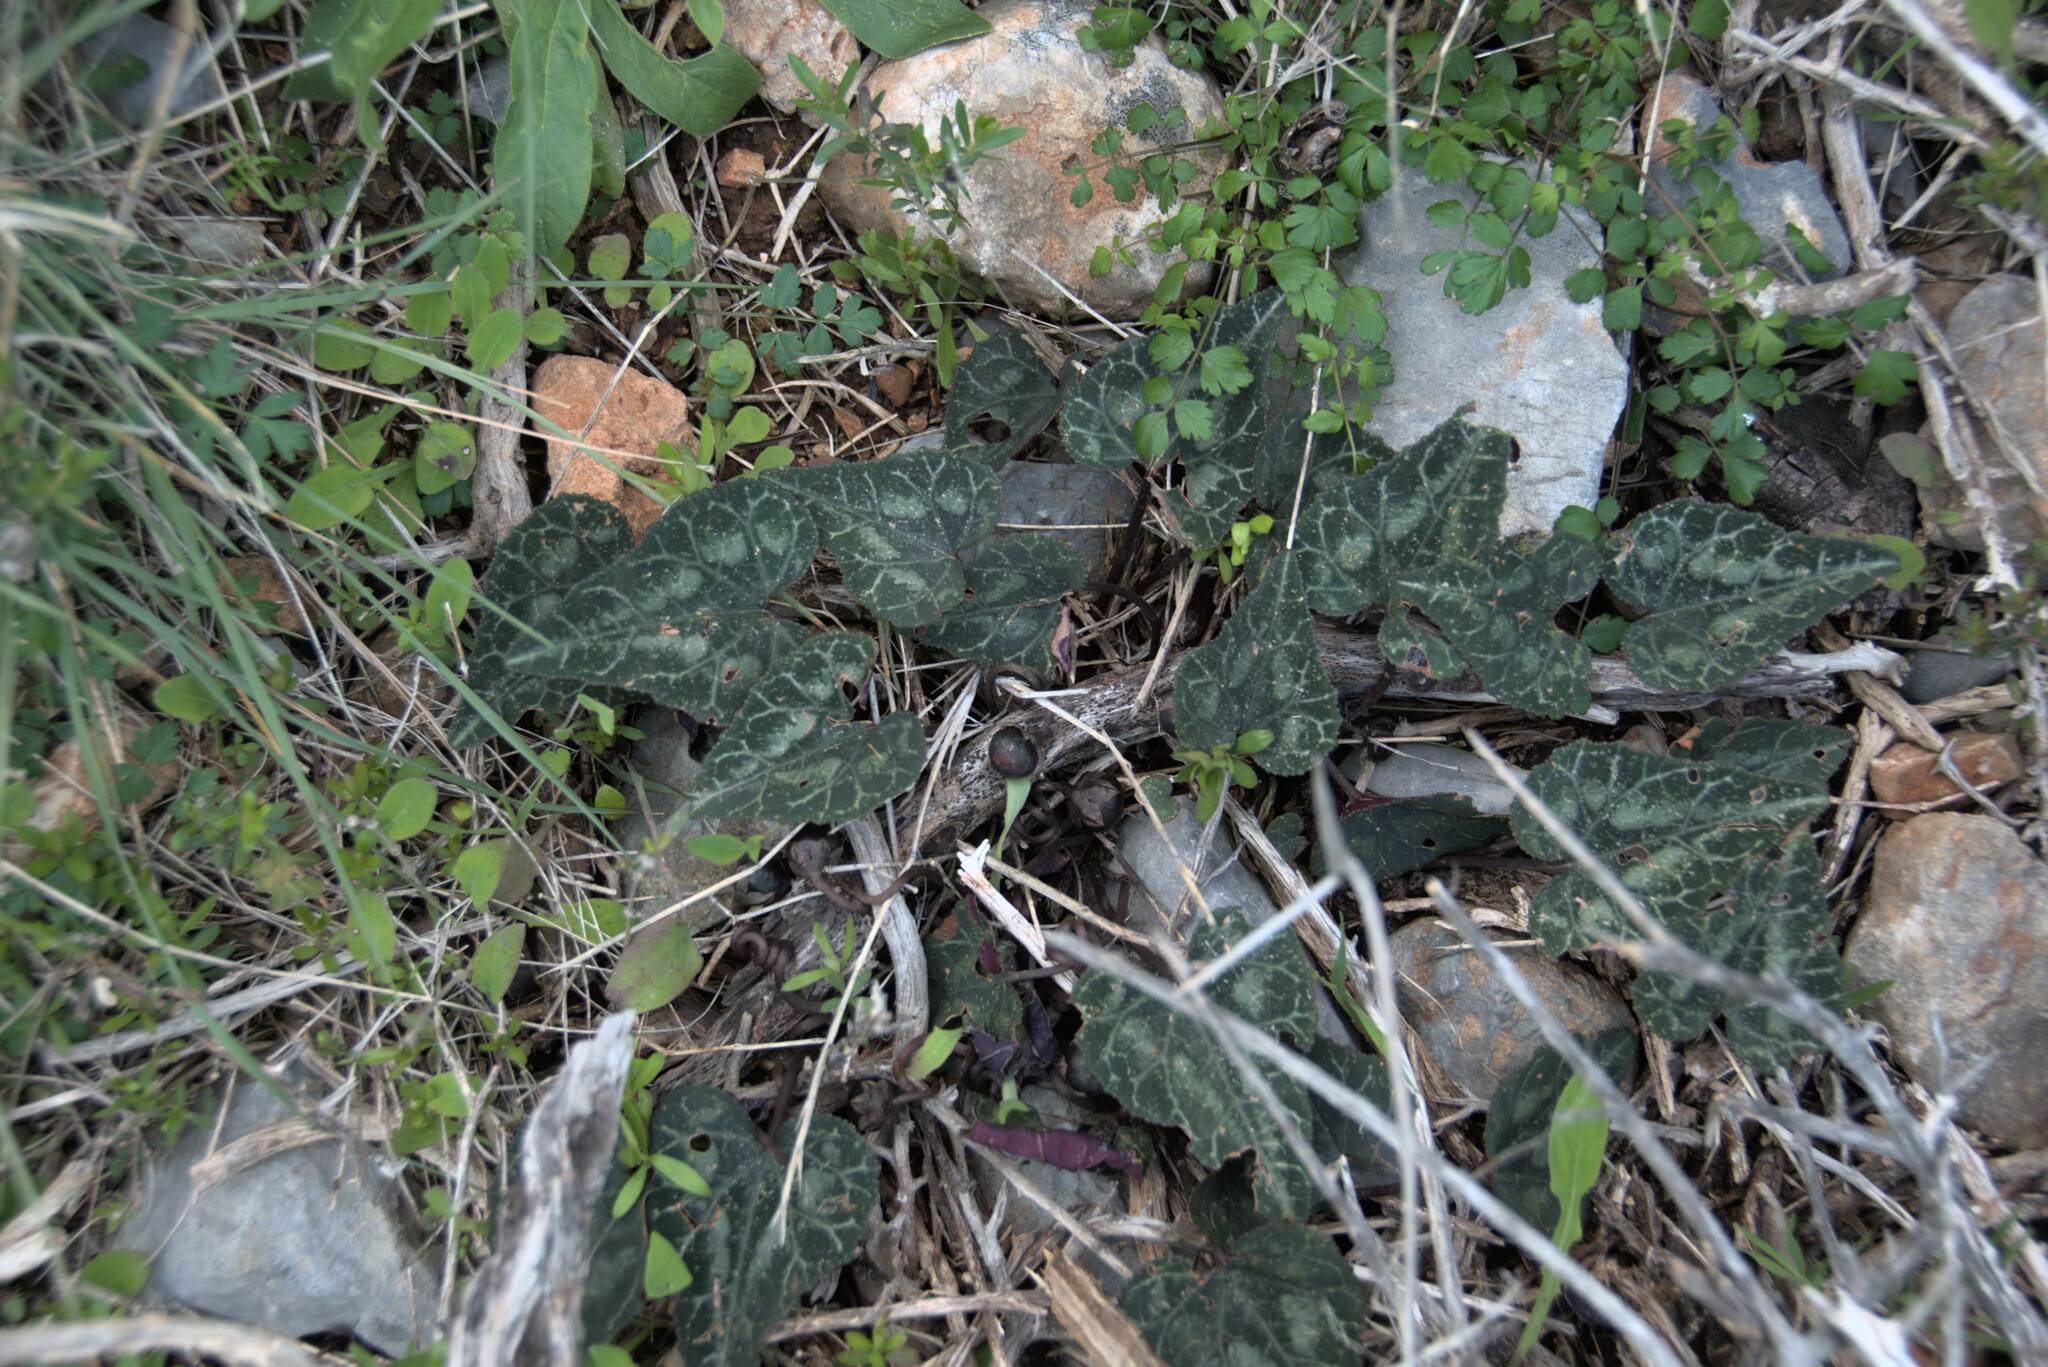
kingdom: Plantae
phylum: Tracheophyta
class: Magnoliopsida
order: Ericales
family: Primulaceae
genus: Cyclamen
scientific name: Cyclamen graecum
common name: Greek cyclamen
